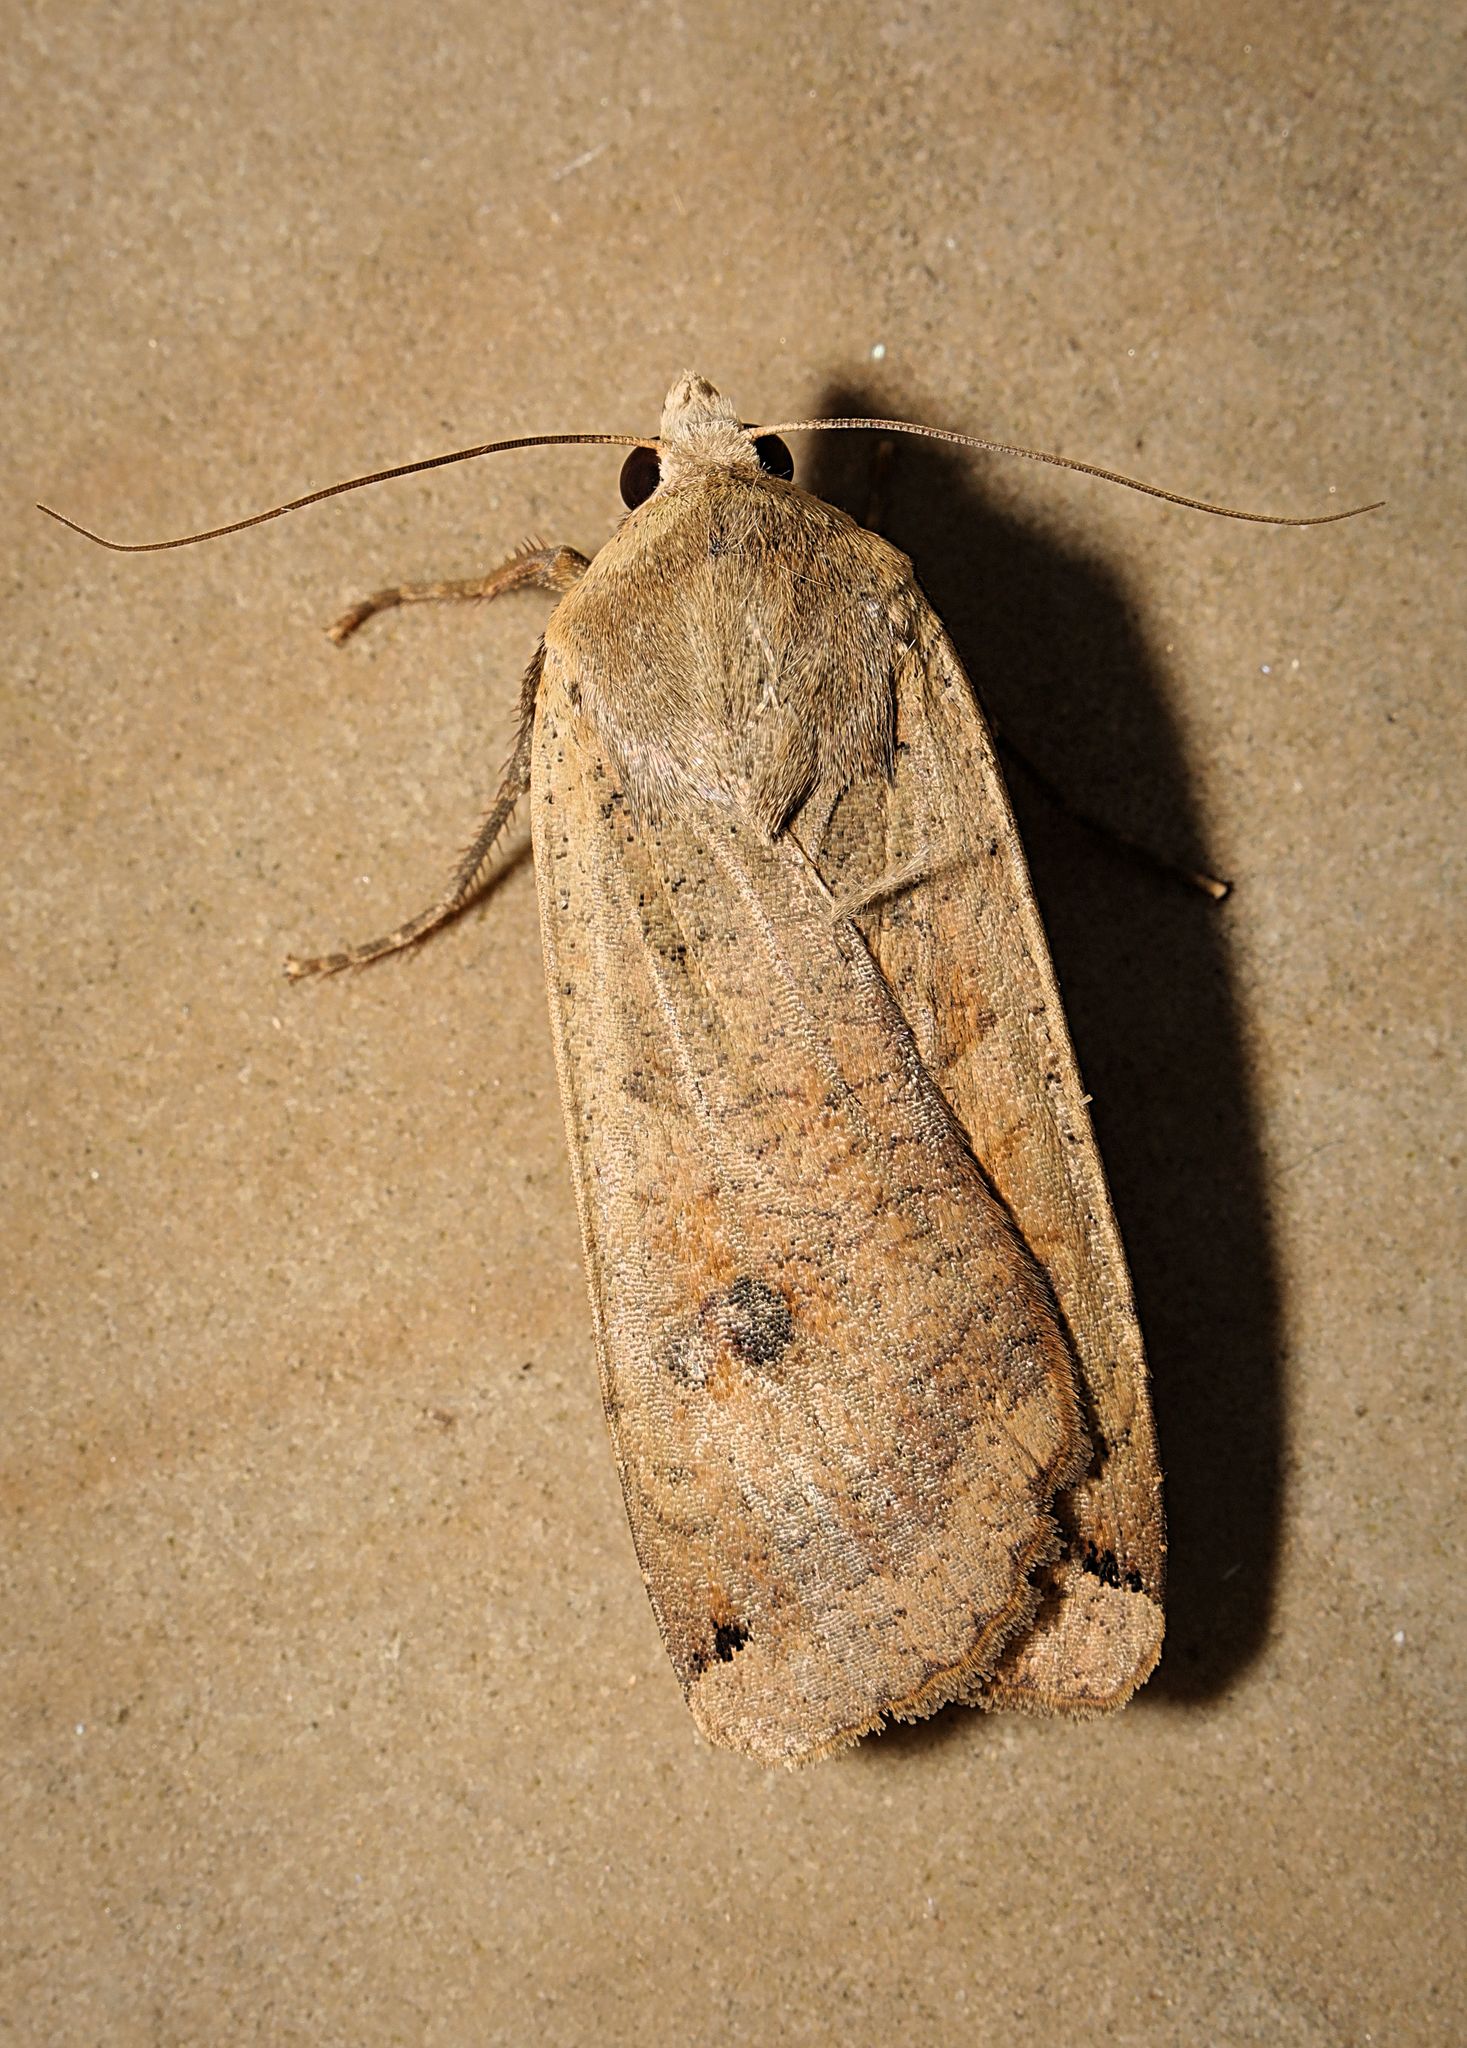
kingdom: Animalia
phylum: Arthropoda
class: Insecta
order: Lepidoptera
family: Noctuidae
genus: Noctua
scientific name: Noctua pronuba
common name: Large yellow underwing
